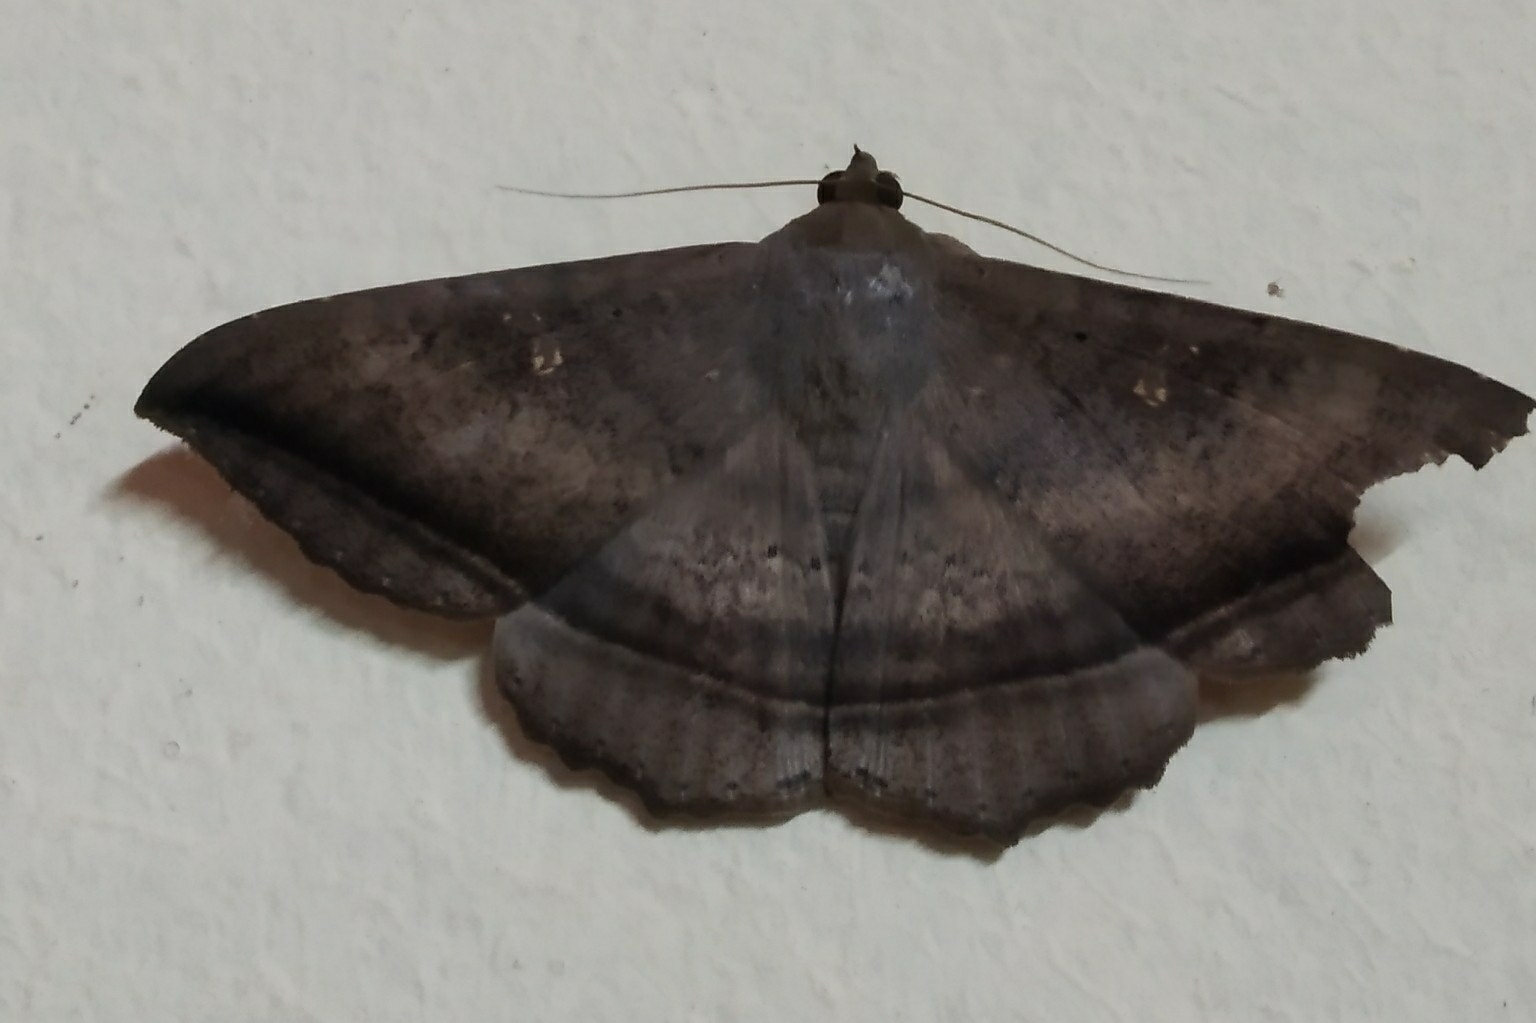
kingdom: Animalia
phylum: Arthropoda
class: Insecta
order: Lepidoptera
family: Erebidae
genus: Hulodes
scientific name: Hulodes caranea
